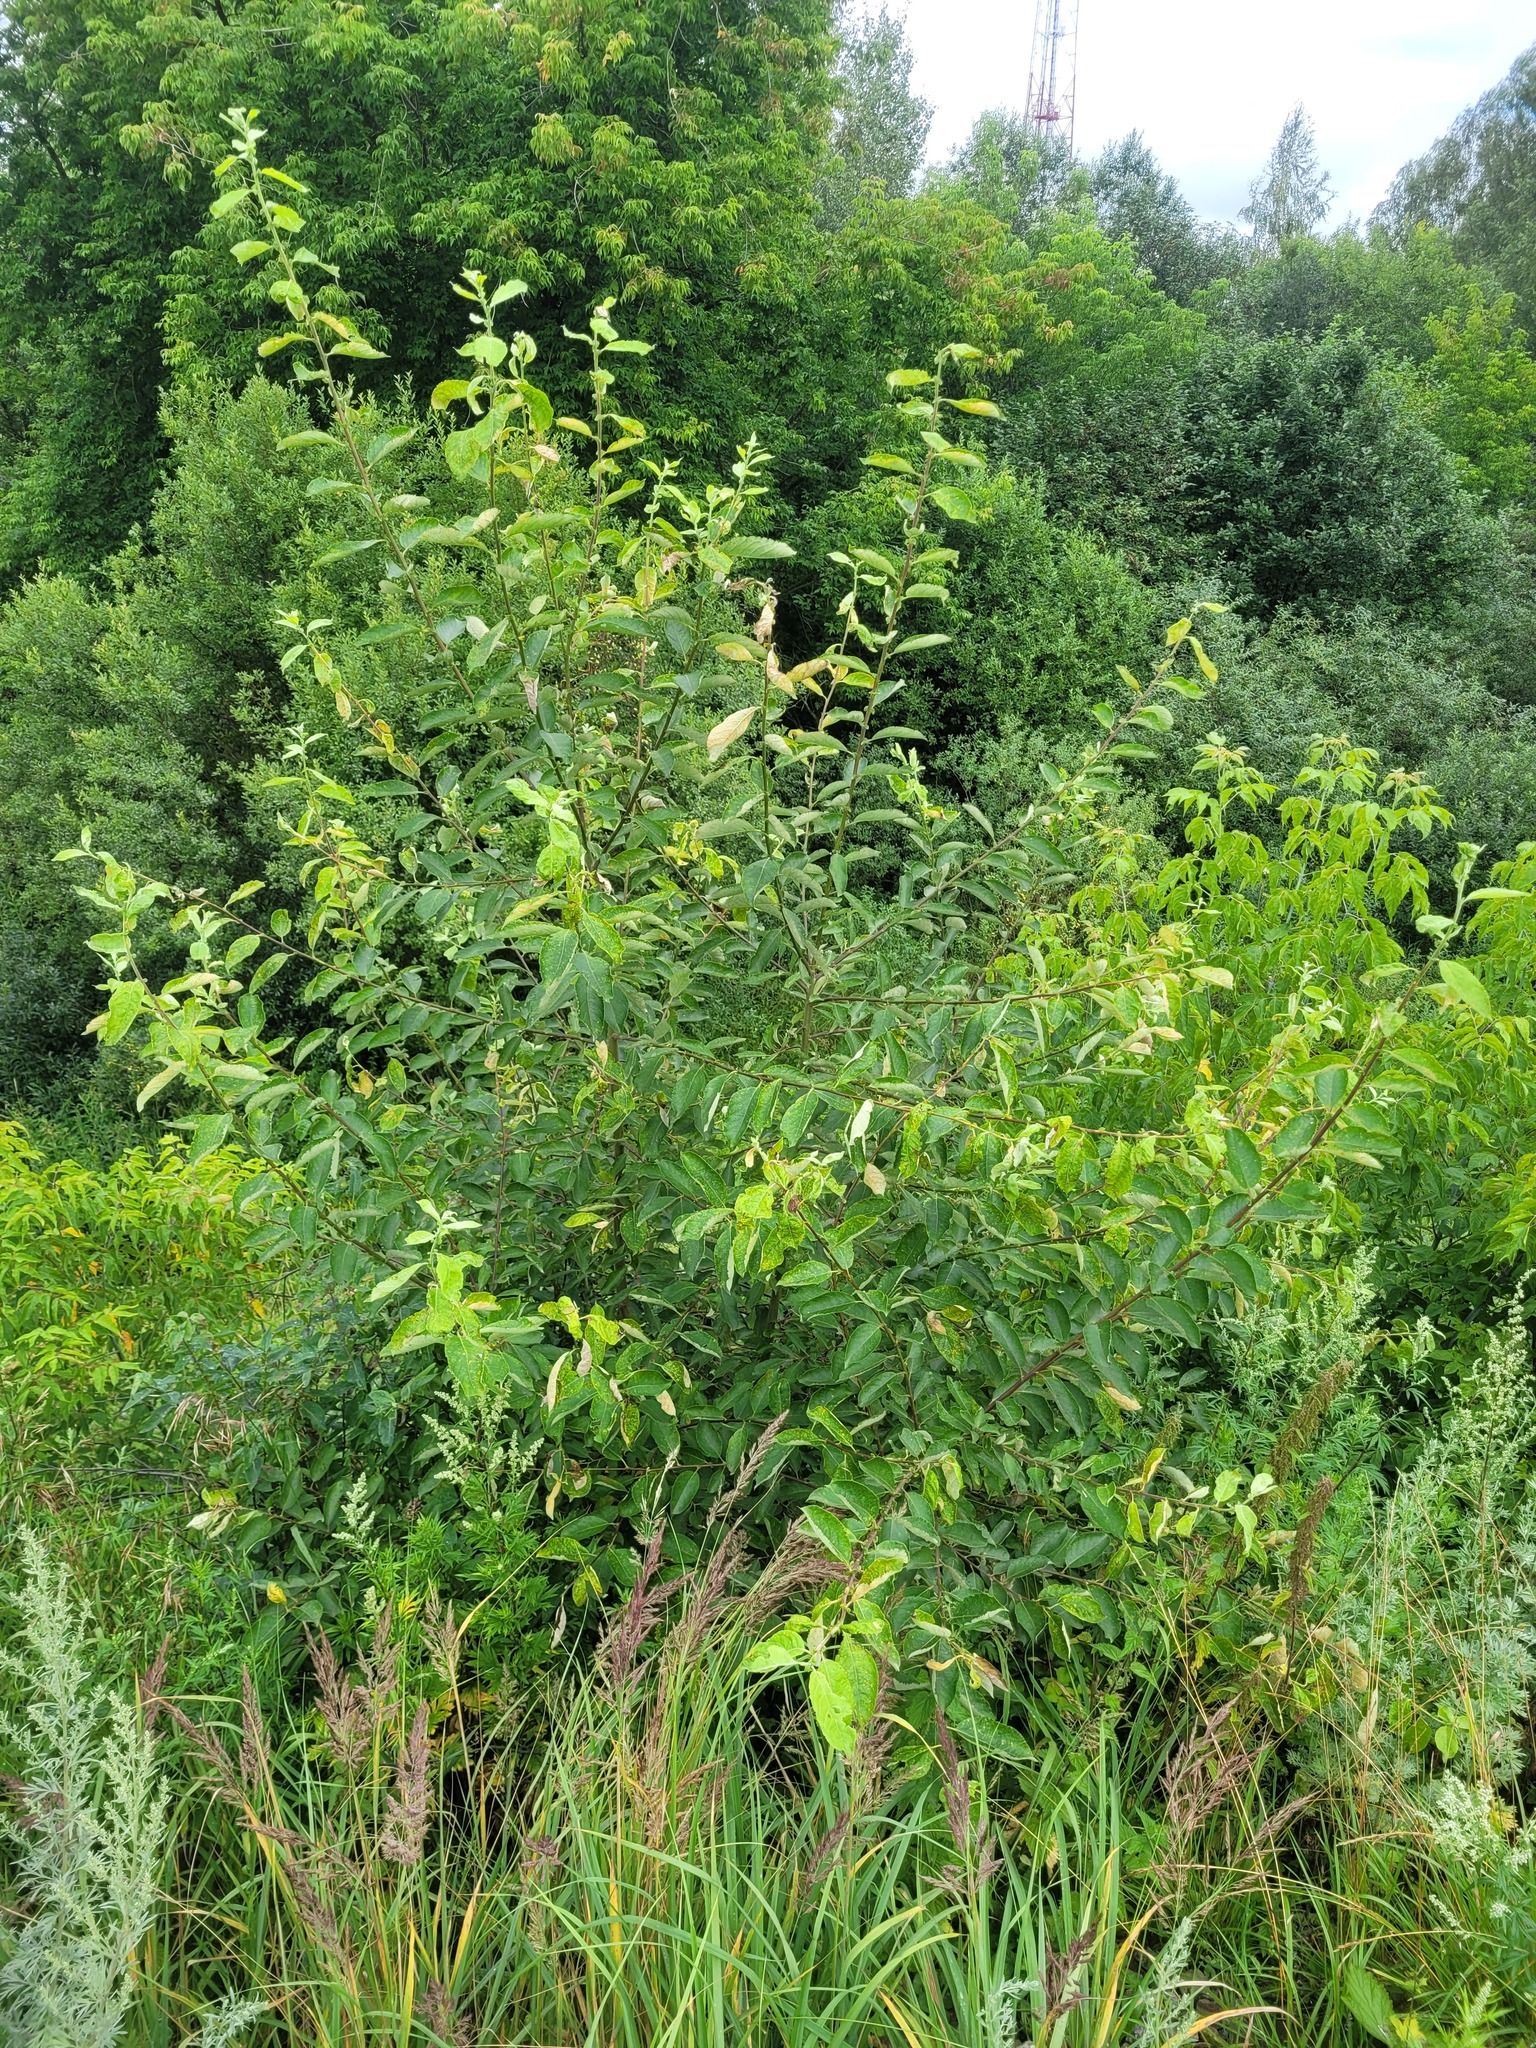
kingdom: Plantae
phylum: Tracheophyta
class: Magnoliopsida
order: Malpighiales
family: Salicaceae
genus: Salix
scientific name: Salix caprea
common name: Goat willow
